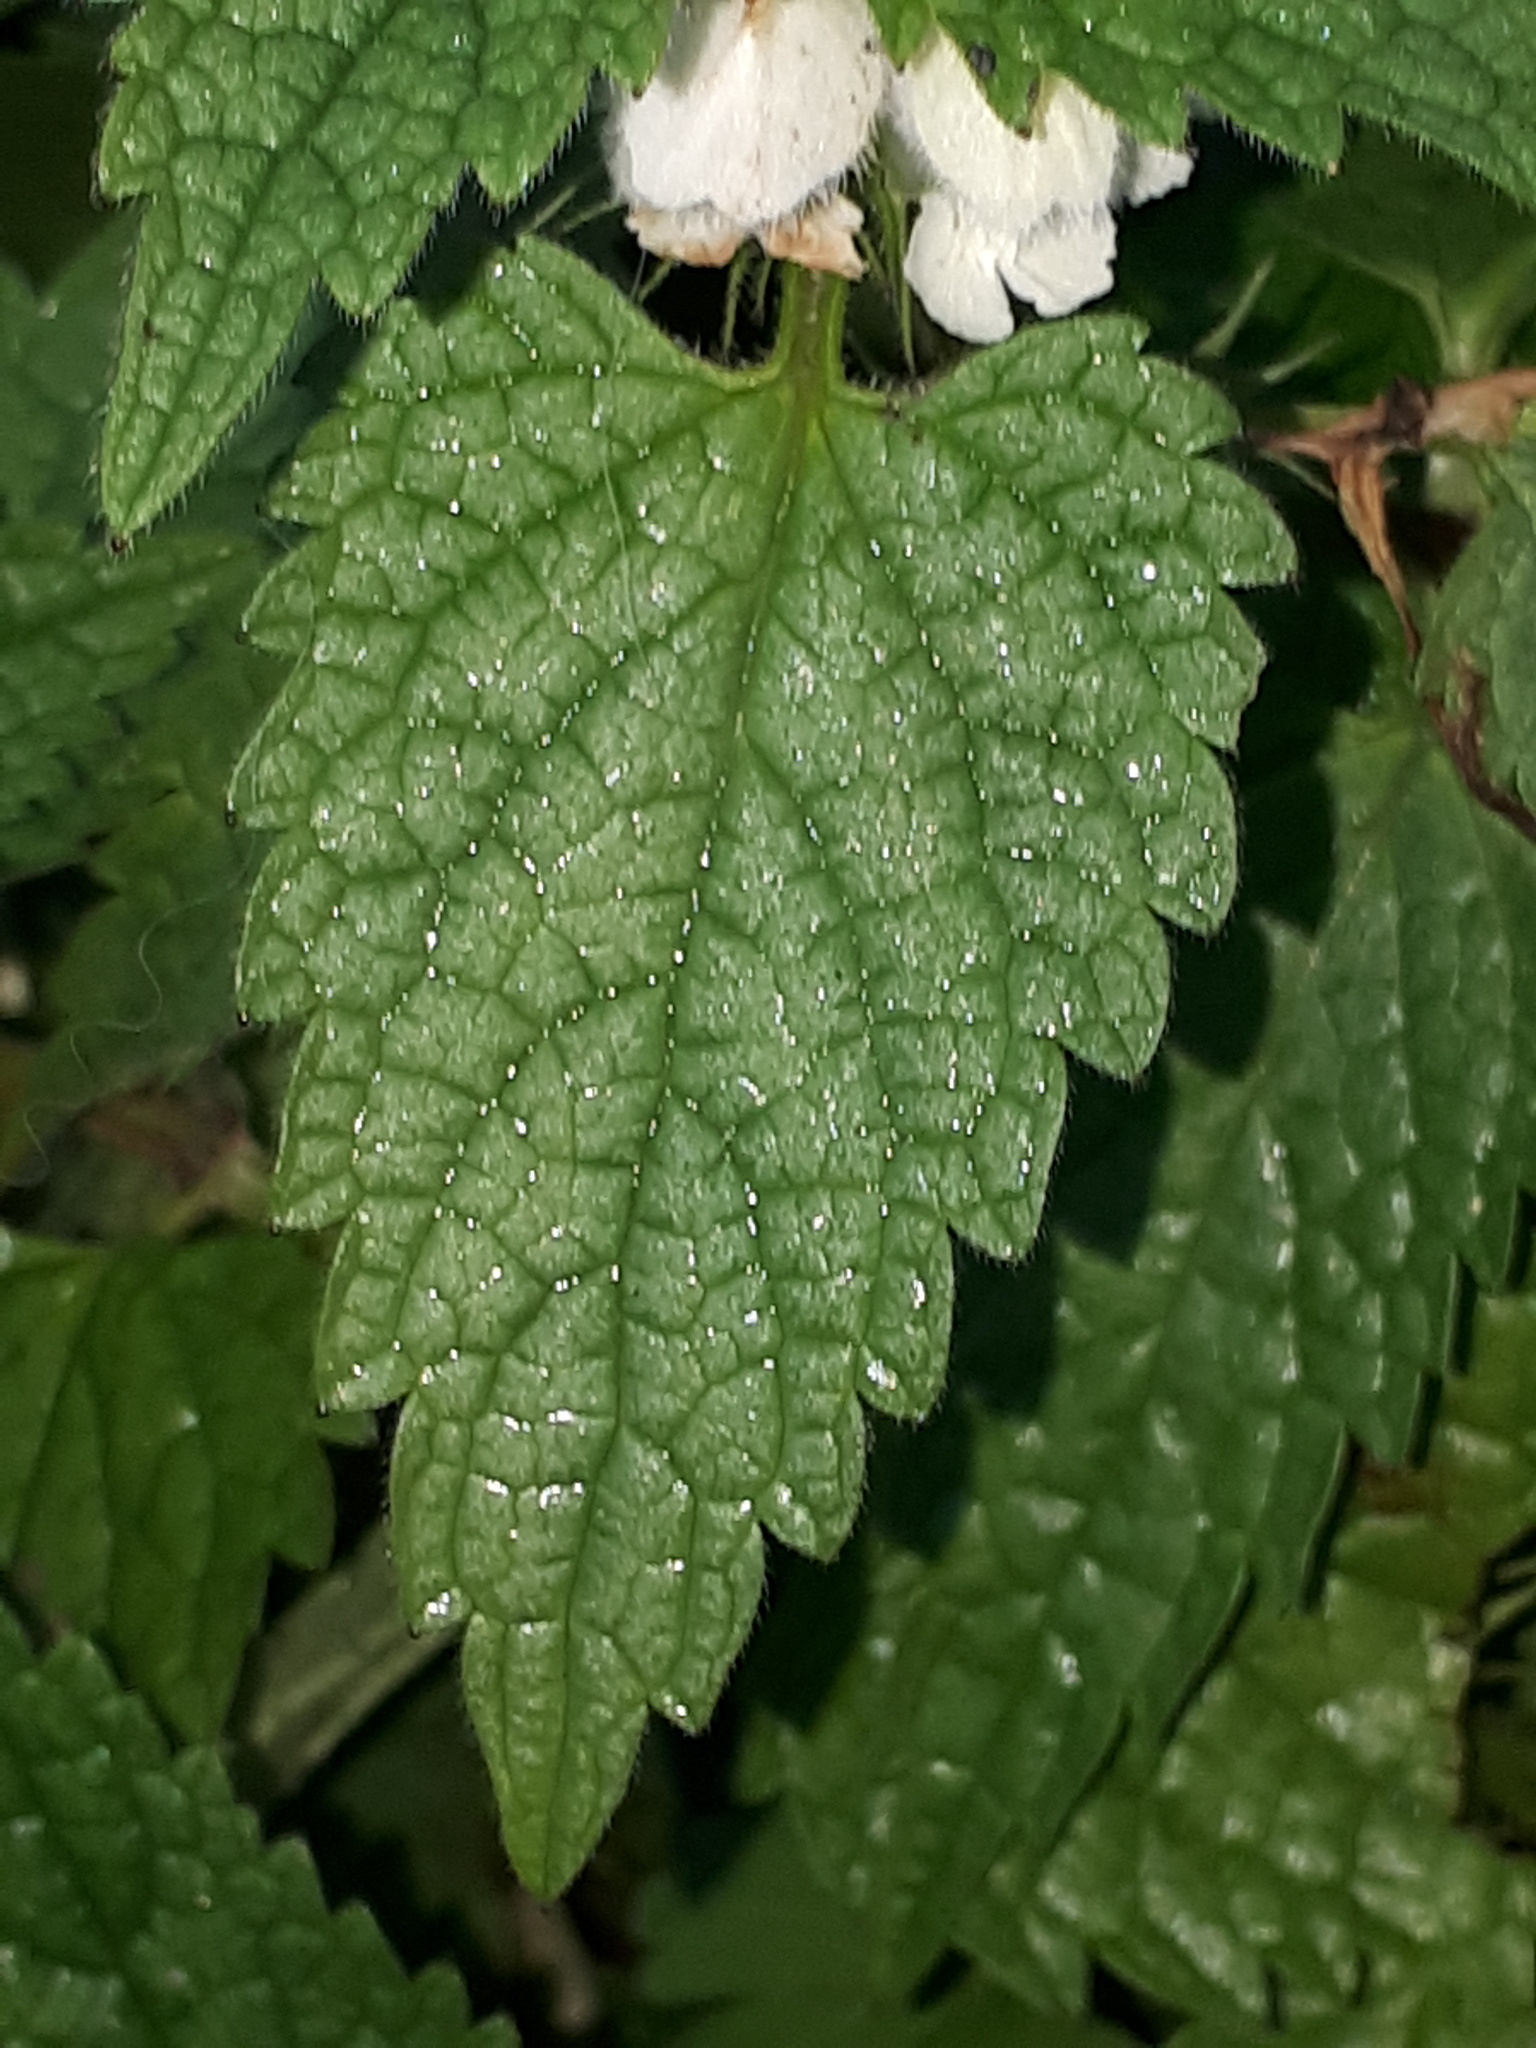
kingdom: Plantae
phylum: Tracheophyta
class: Magnoliopsida
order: Lamiales
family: Lamiaceae
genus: Lamium
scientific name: Lamium album
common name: White dead-nettle
